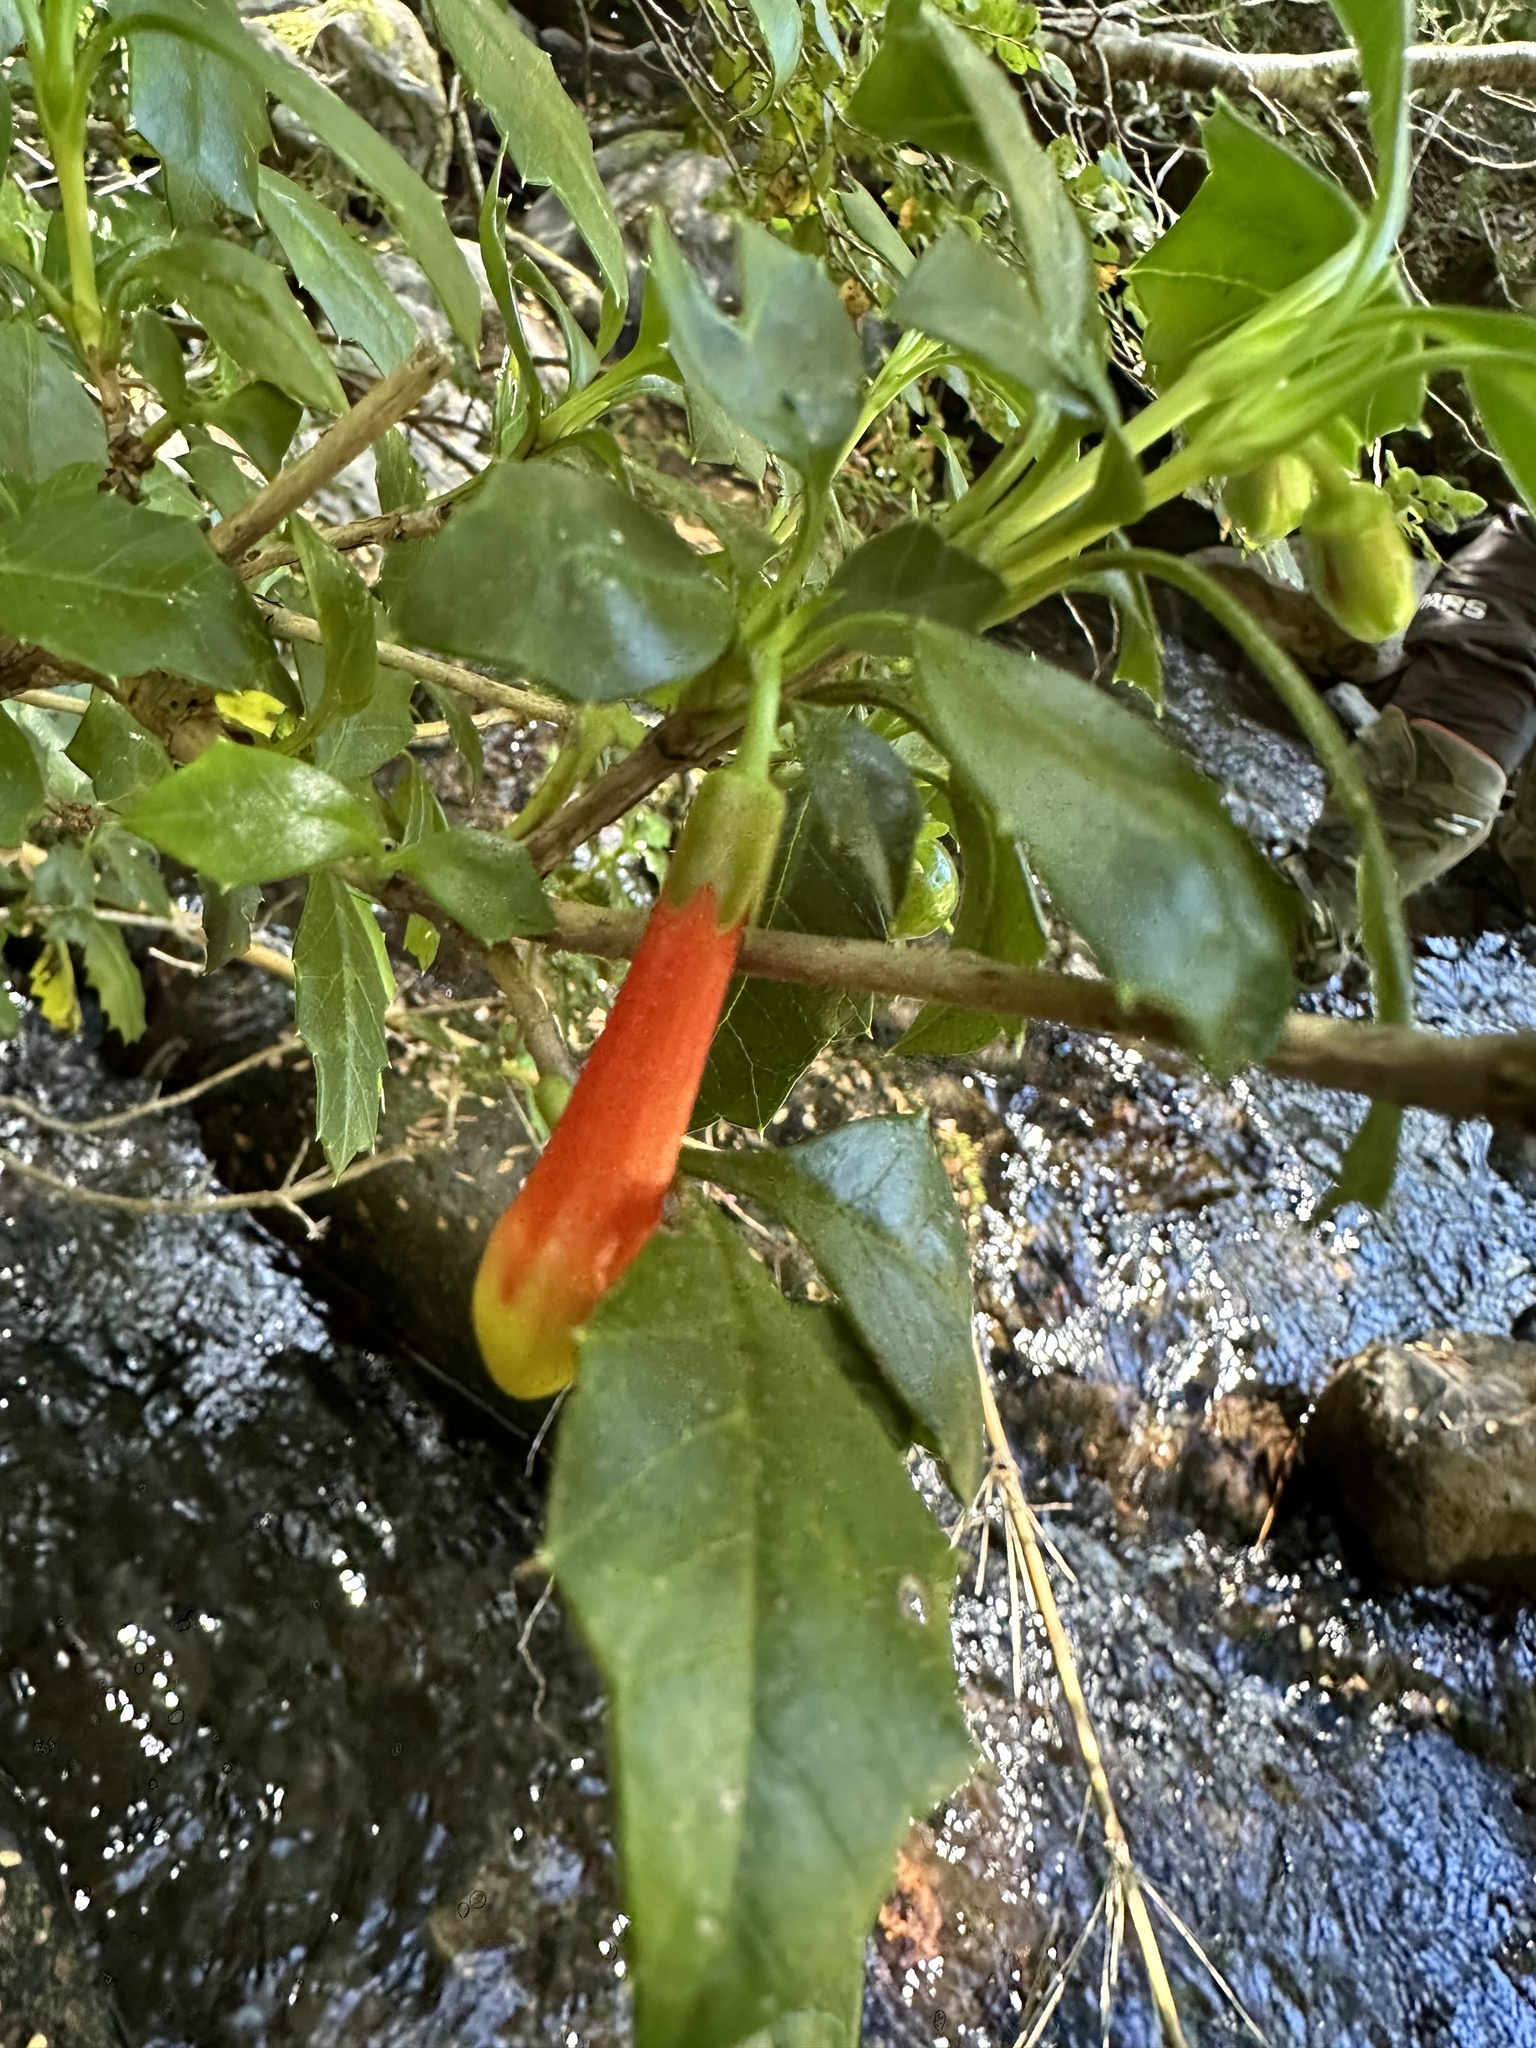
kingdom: Plantae
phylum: Tracheophyta
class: Magnoliopsida
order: Bruniales
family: Columelliaceae
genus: Desfontainia
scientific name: Desfontainia fulgens
